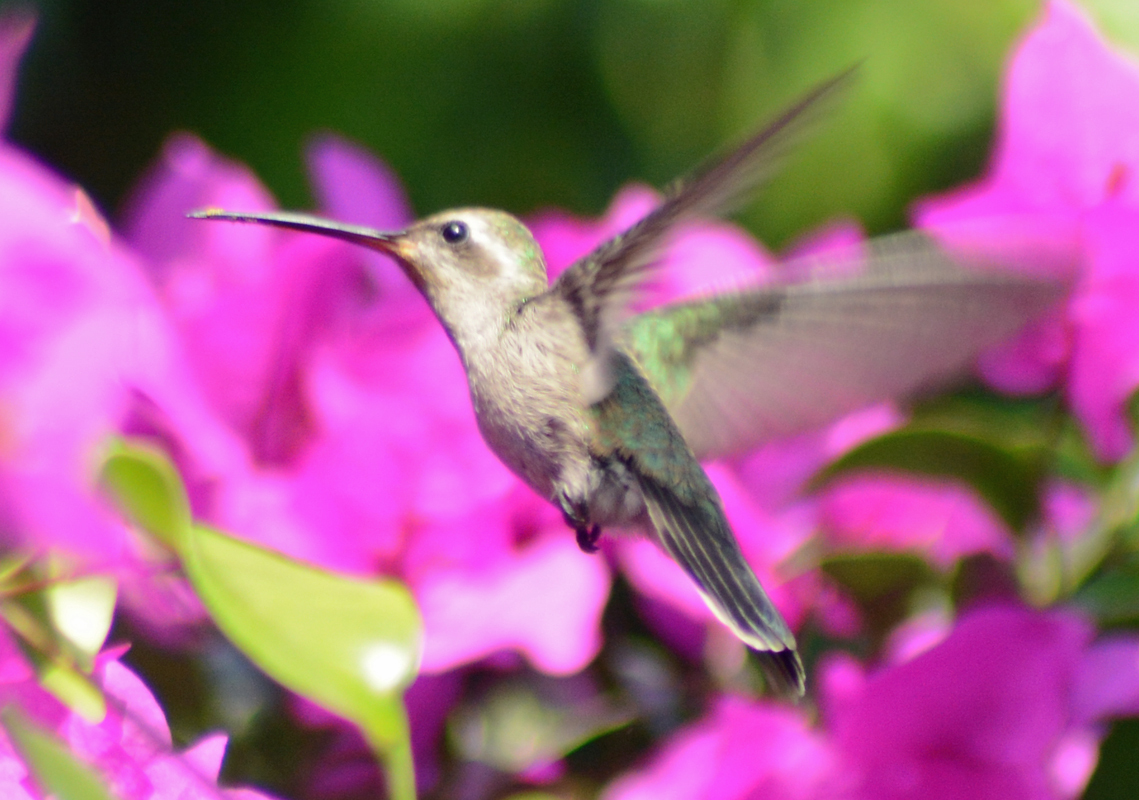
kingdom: Animalia
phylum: Chordata
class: Aves
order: Apodiformes
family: Trochilidae
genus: Cynanthus
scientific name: Cynanthus latirostris
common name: Broad-billed hummingbird
